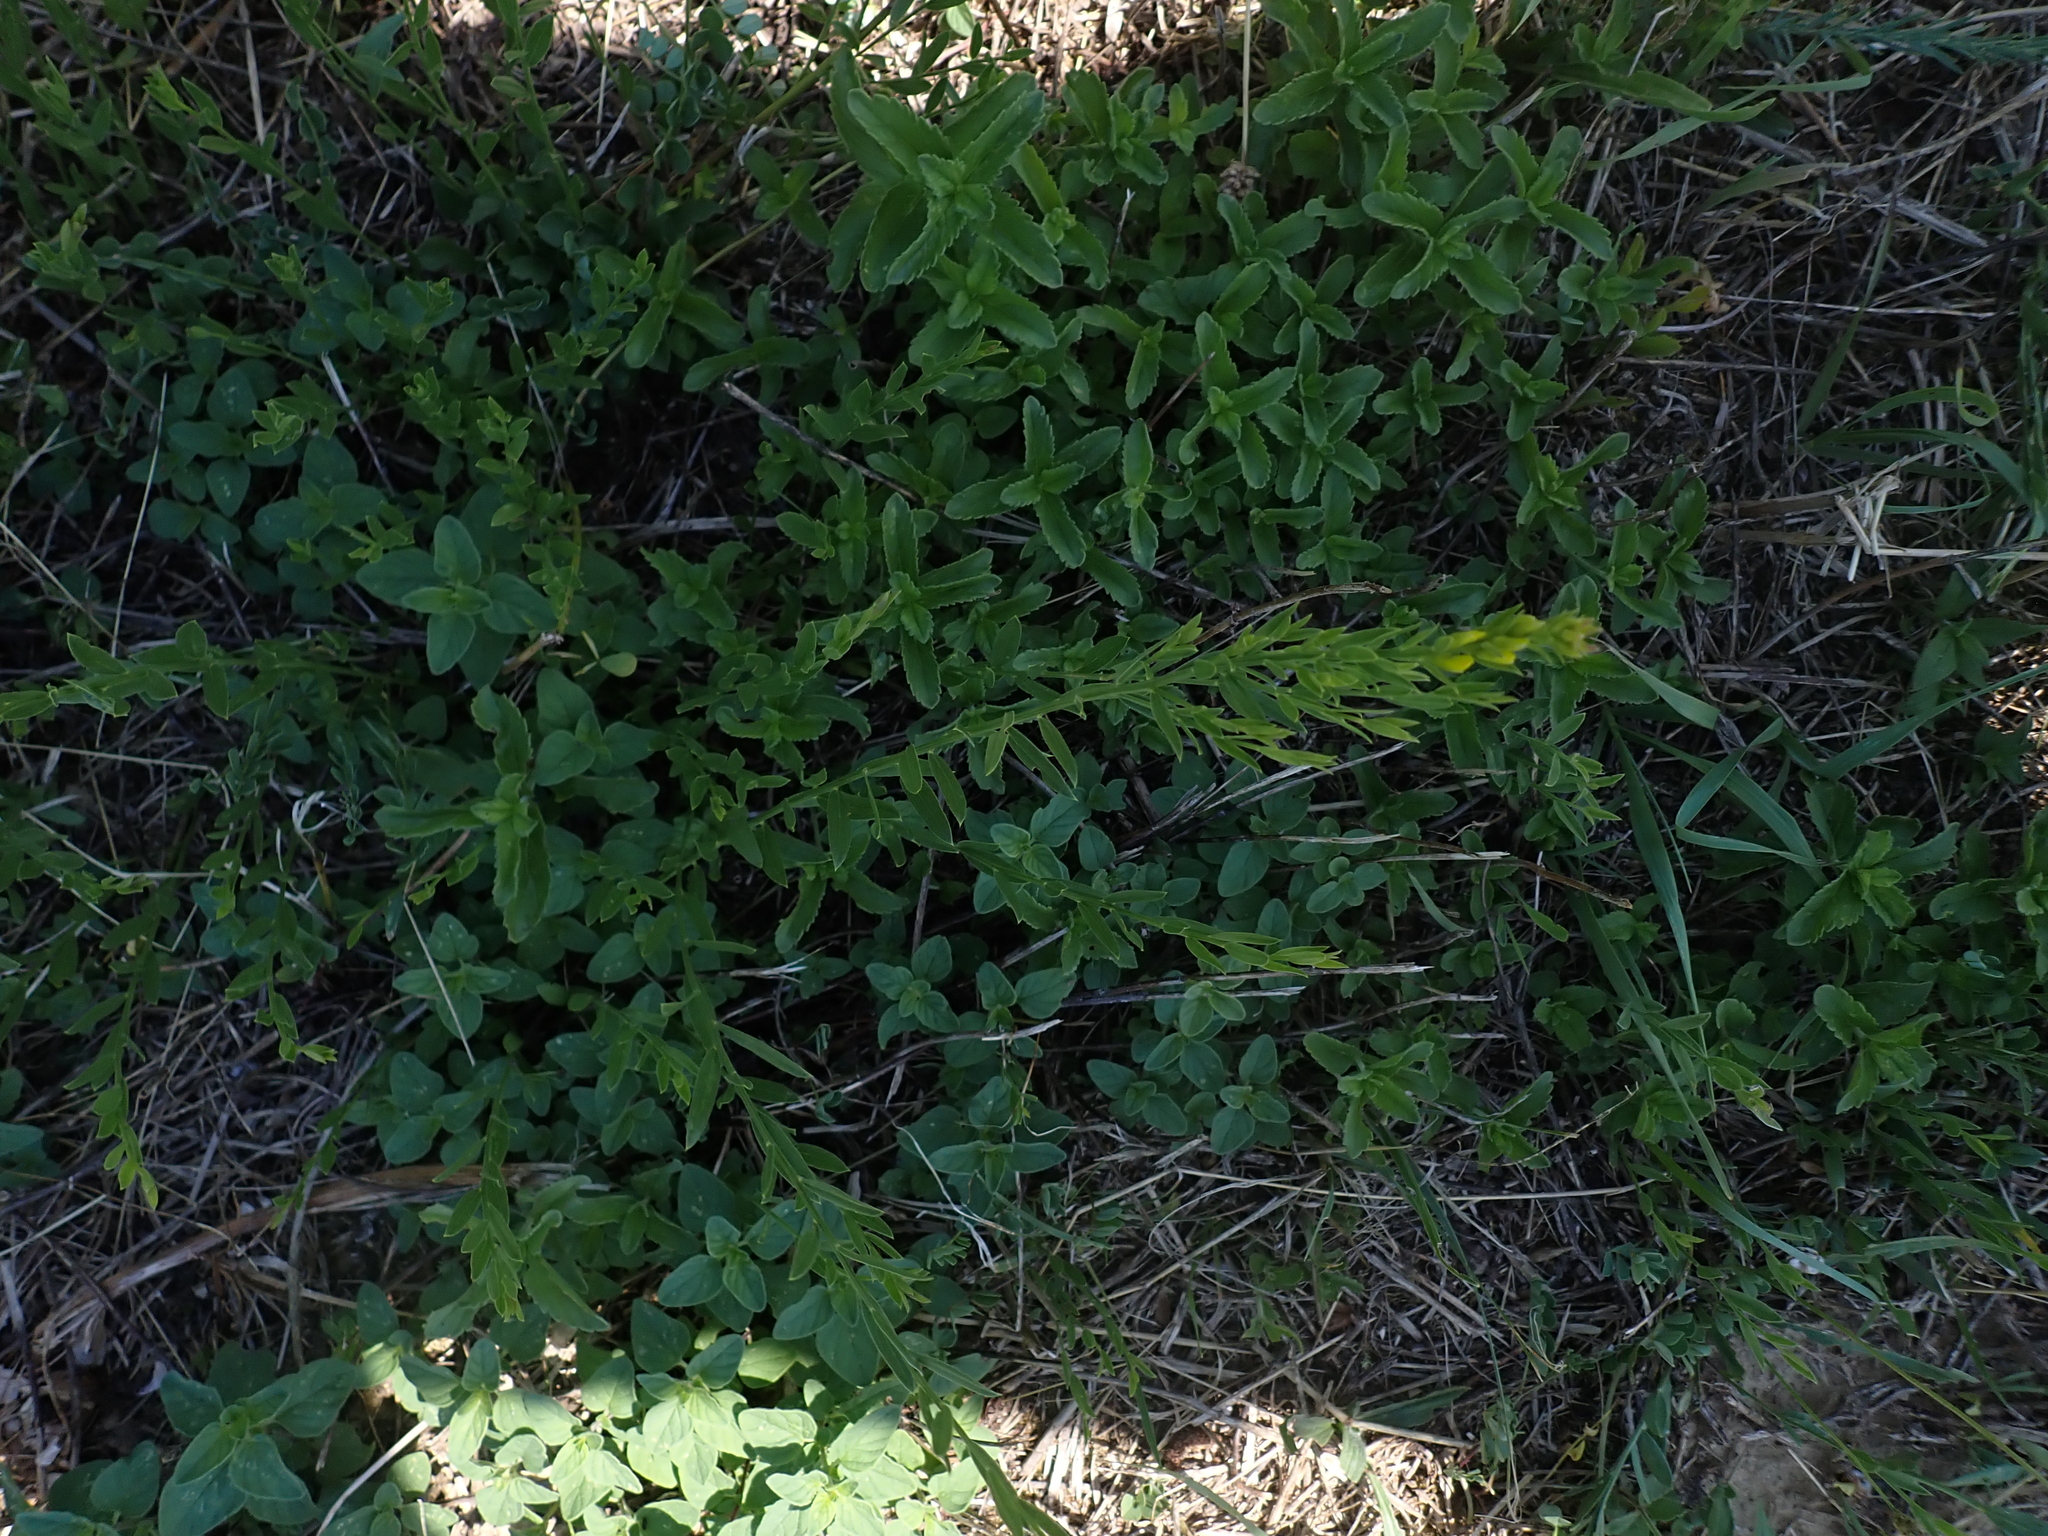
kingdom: Plantae
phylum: Tracheophyta
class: Magnoliopsida
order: Fabales
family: Fabaceae
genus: Genista
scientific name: Genista tinctoria
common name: Dyer's greenweed
